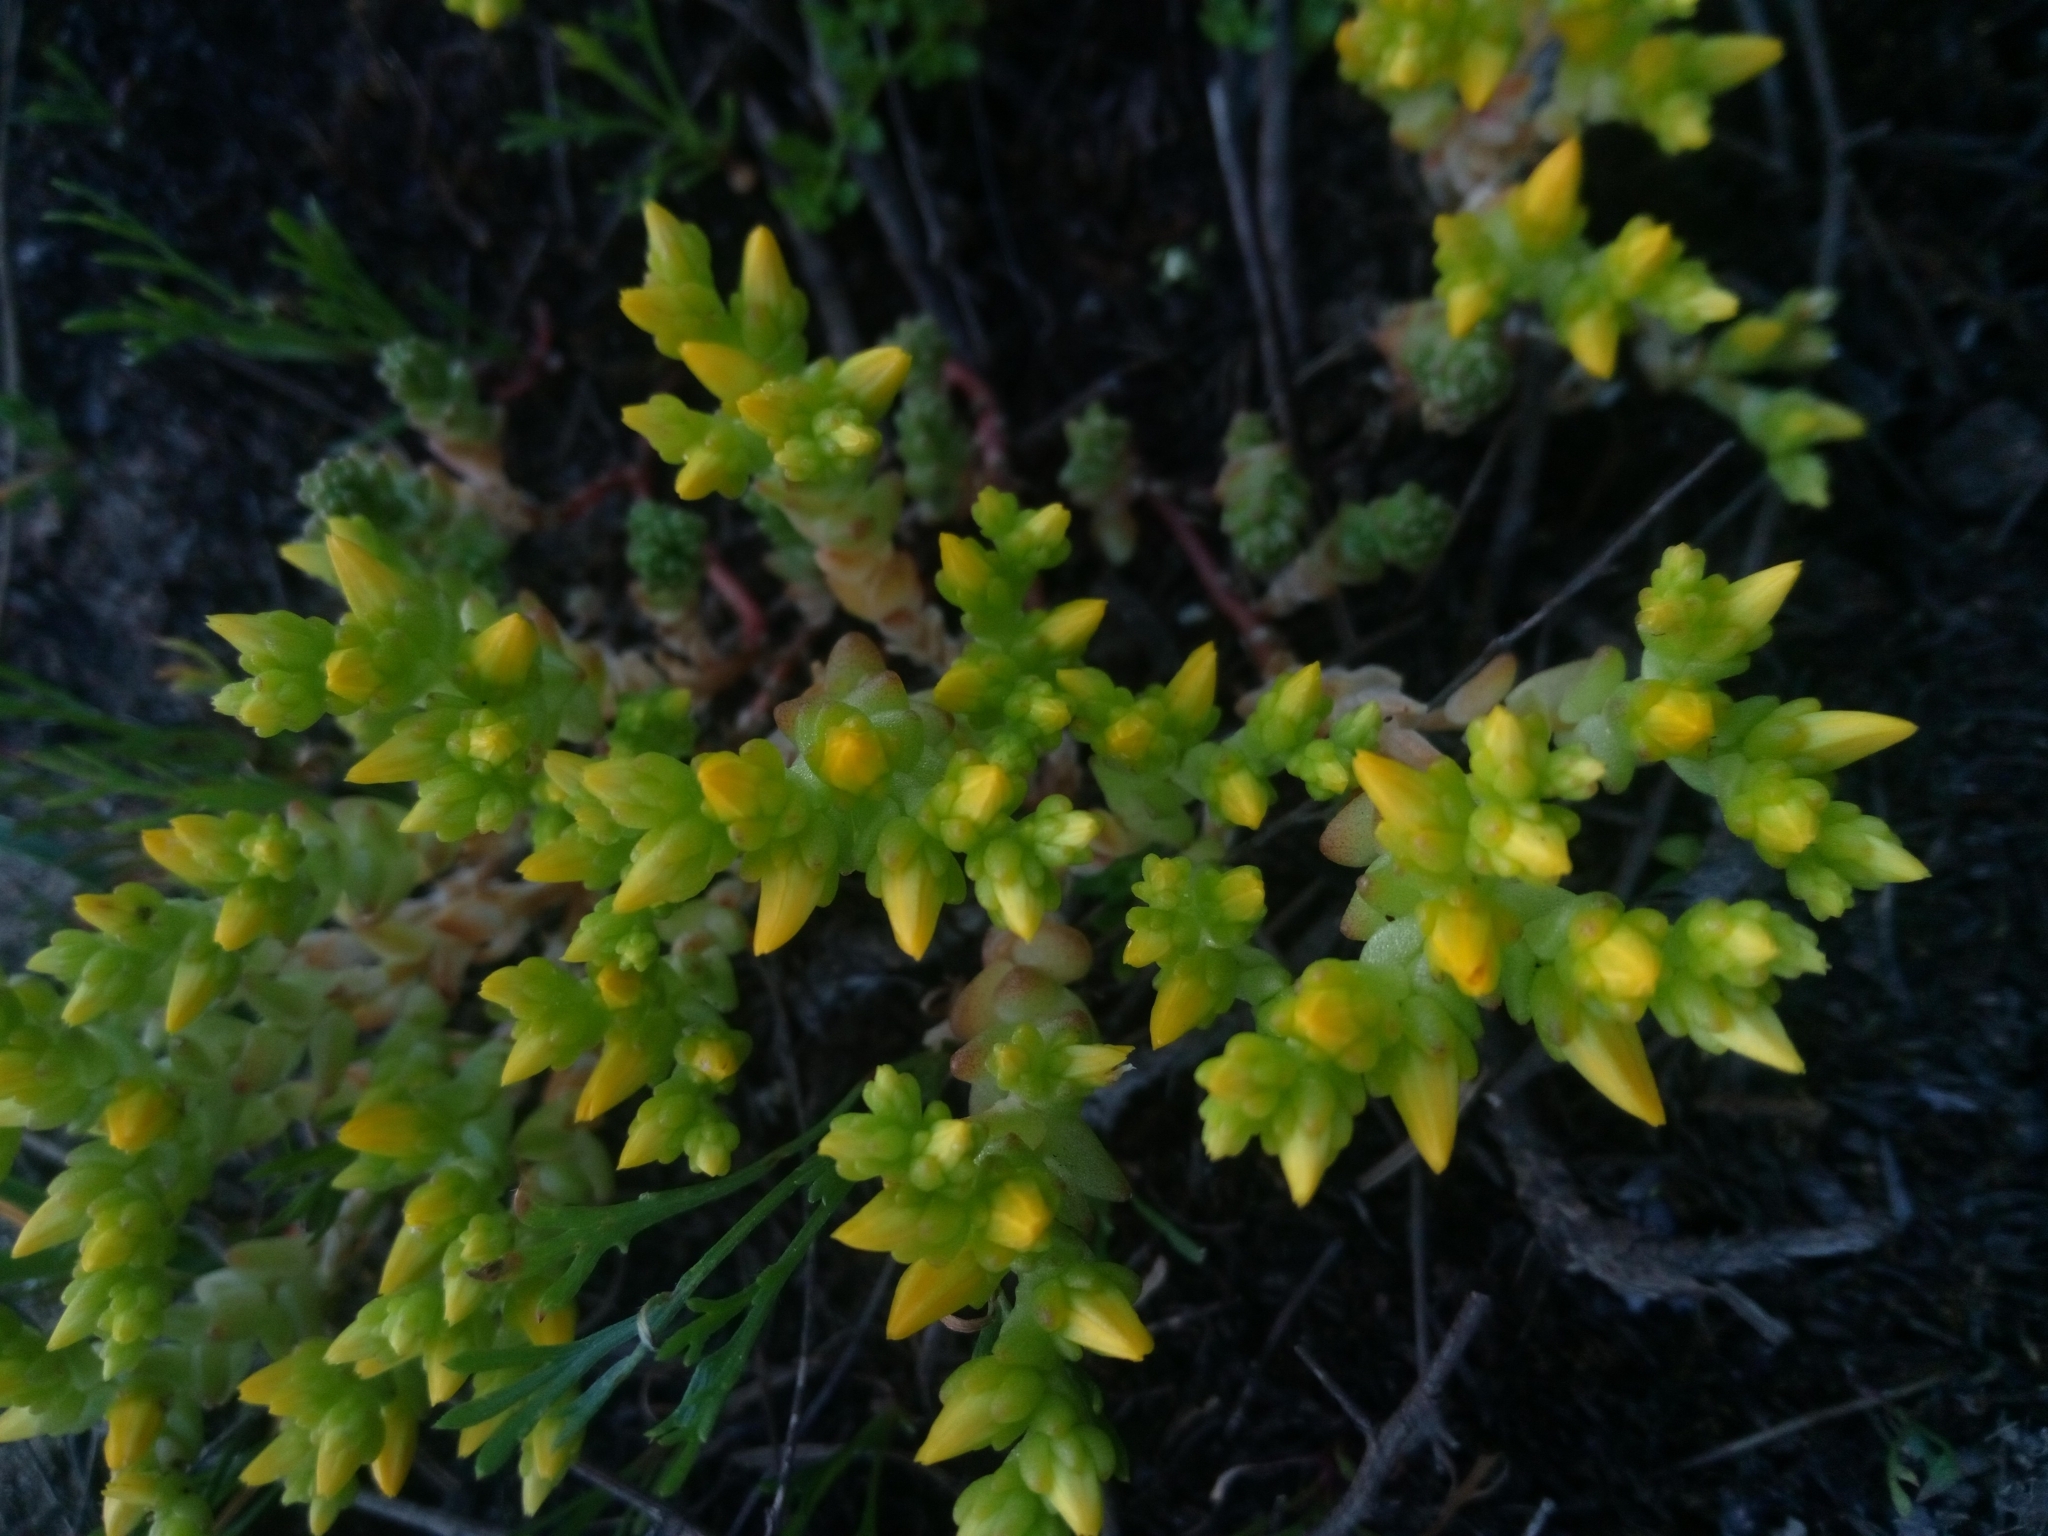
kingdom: Plantae
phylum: Tracheophyta
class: Magnoliopsida
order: Saxifragales
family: Crassulaceae
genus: Sedum
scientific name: Sedum acre
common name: Biting stonecrop
